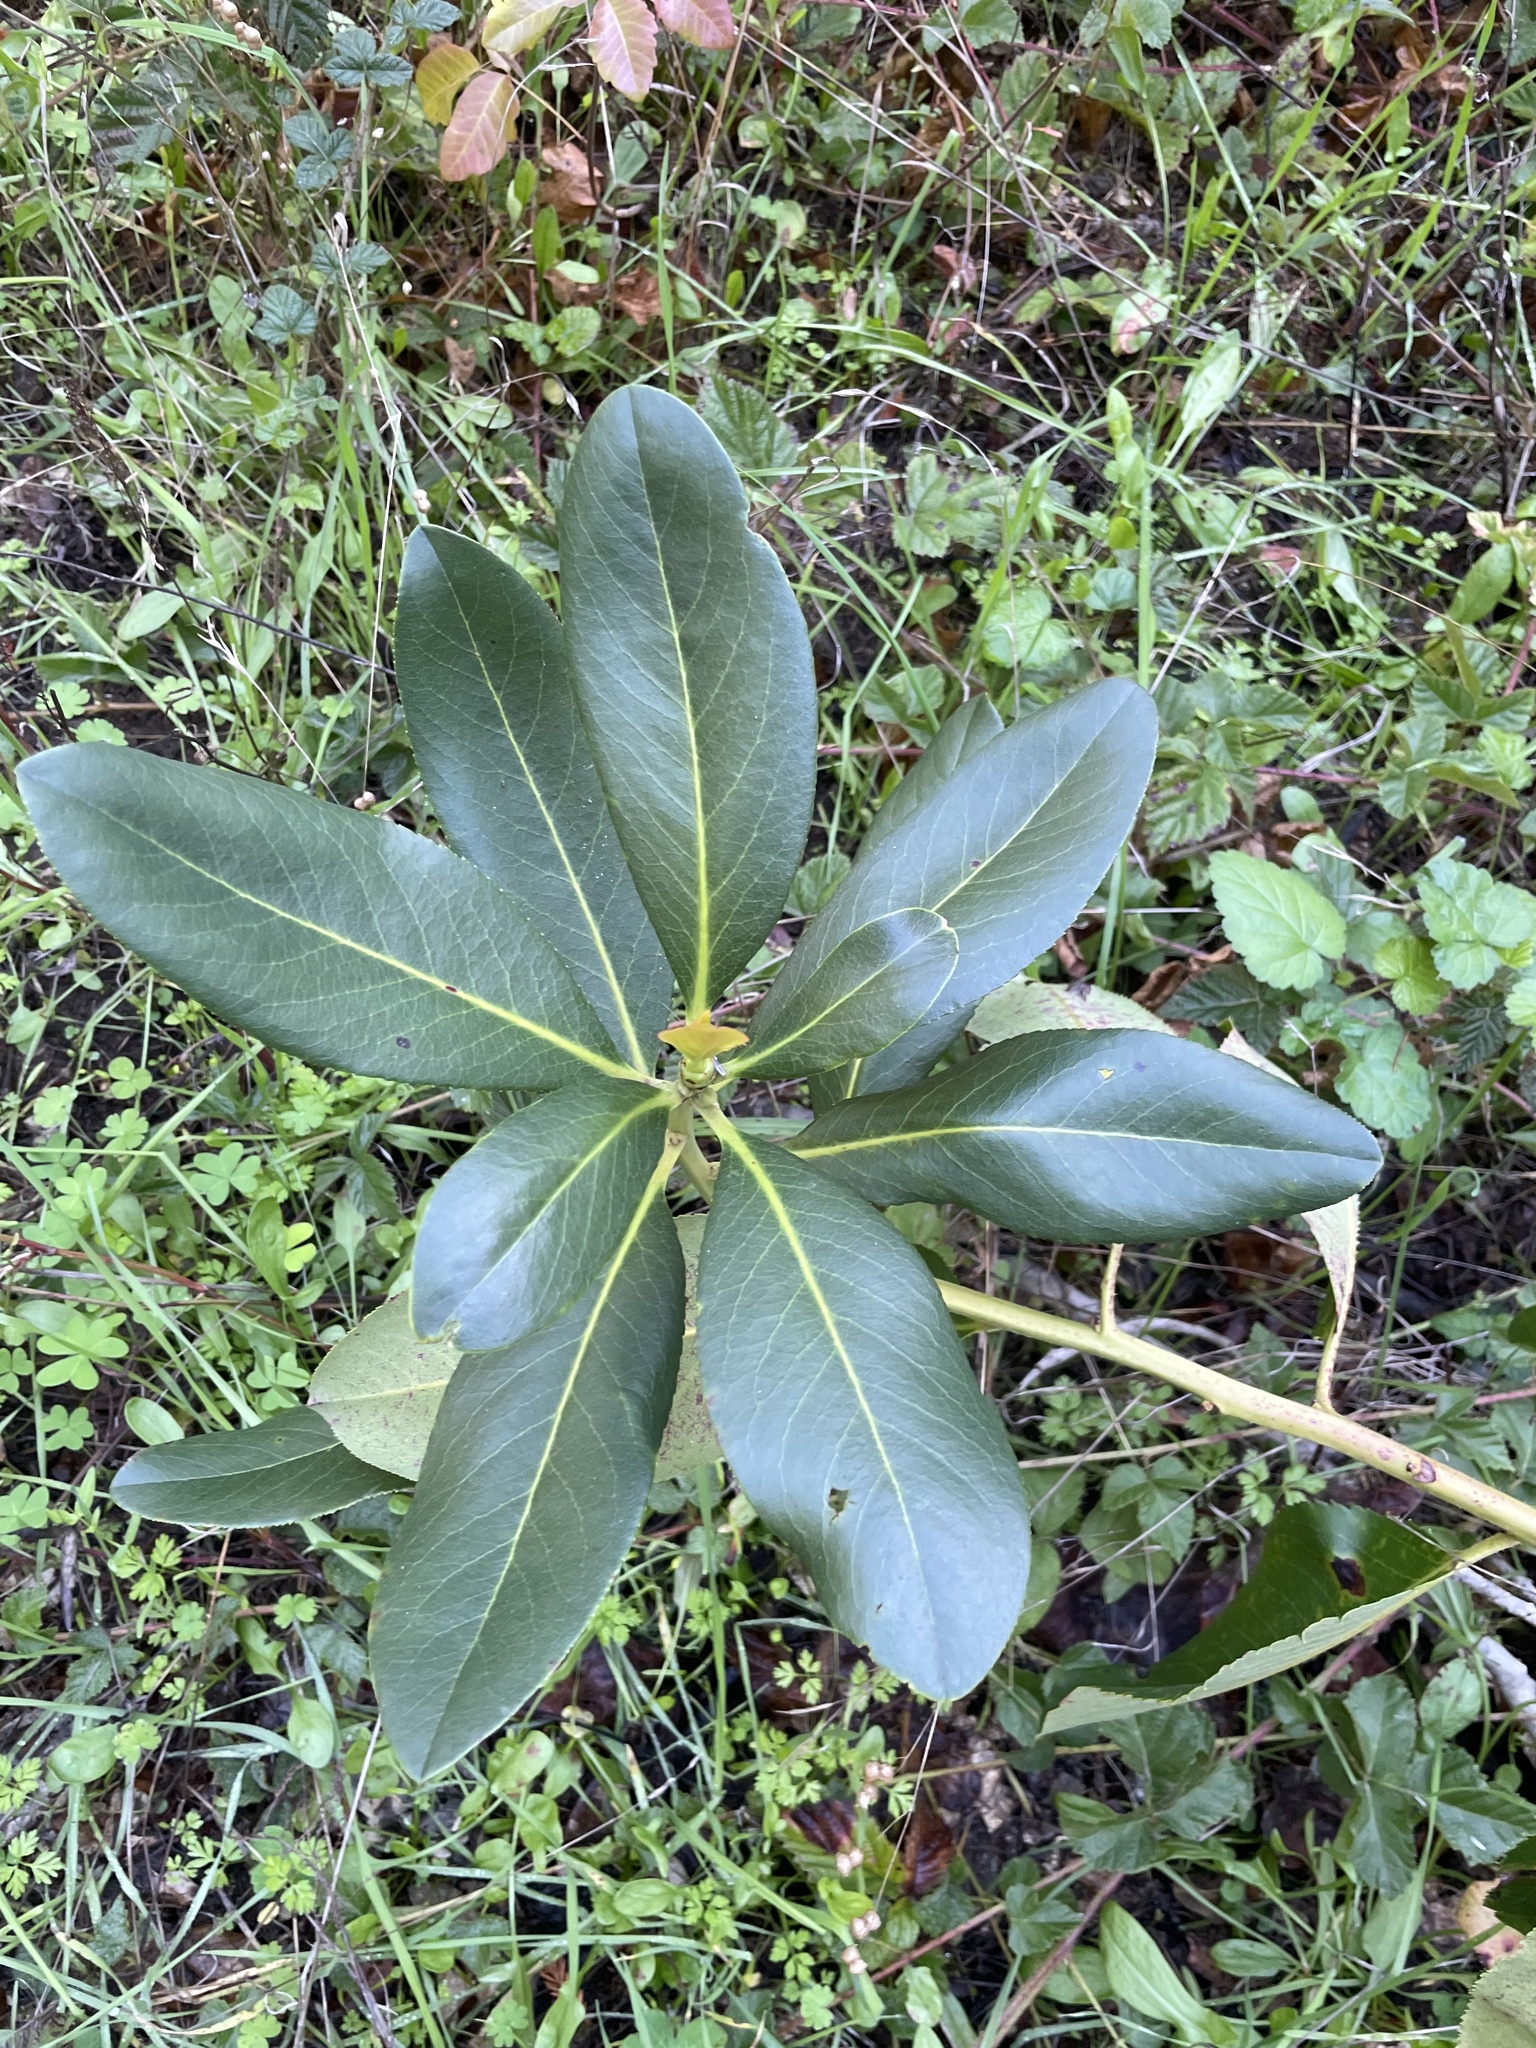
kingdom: Plantae
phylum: Tracheophyta
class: Magnoliopsida
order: Ericales
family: Ericaceae
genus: Arbutus
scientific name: Arbutus menziesii
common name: Pacific madrone
